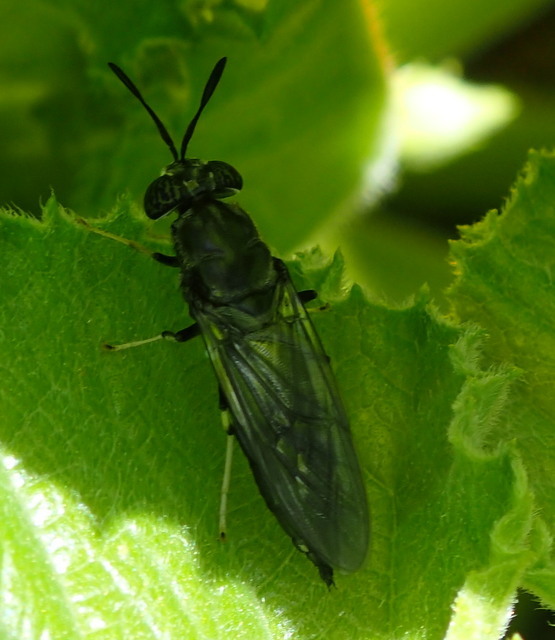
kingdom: Animalia
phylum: Arthropoda
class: Insecta
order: Diptera
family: Stratiomyidae
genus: Hermetia
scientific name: Hermetia illucens
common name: Black soldier fly
